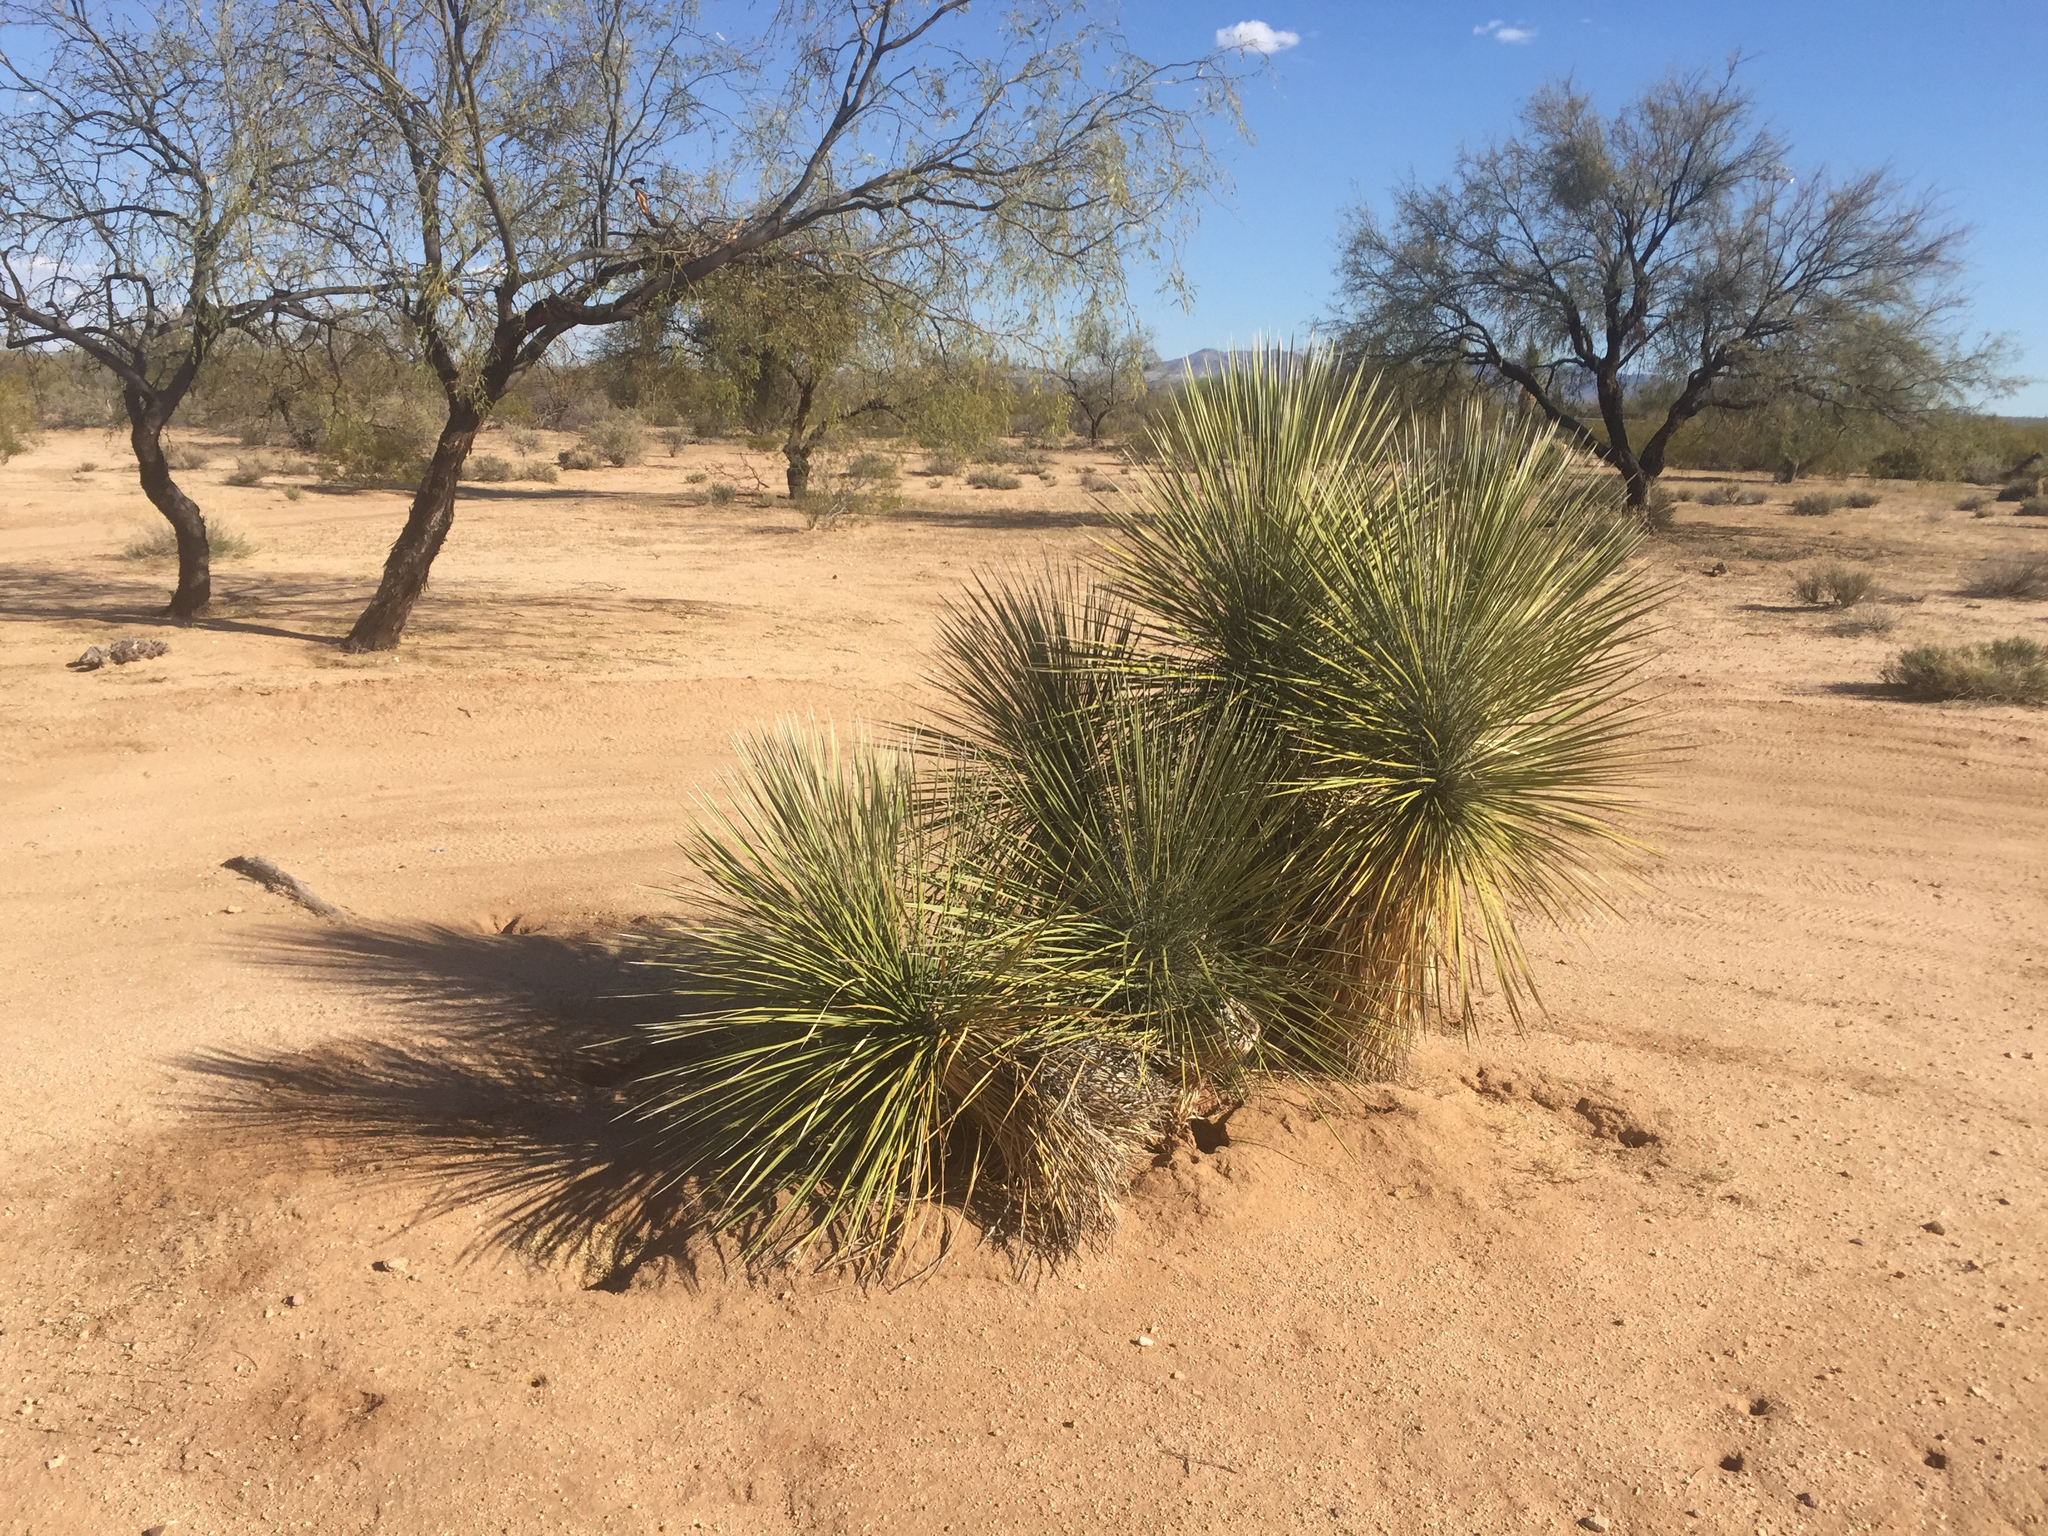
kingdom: Plantae
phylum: Tracheophyta
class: Liliopsida
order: Asparagales
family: Asparagaceae
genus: Yucca
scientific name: Yucca elata
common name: Palmella
